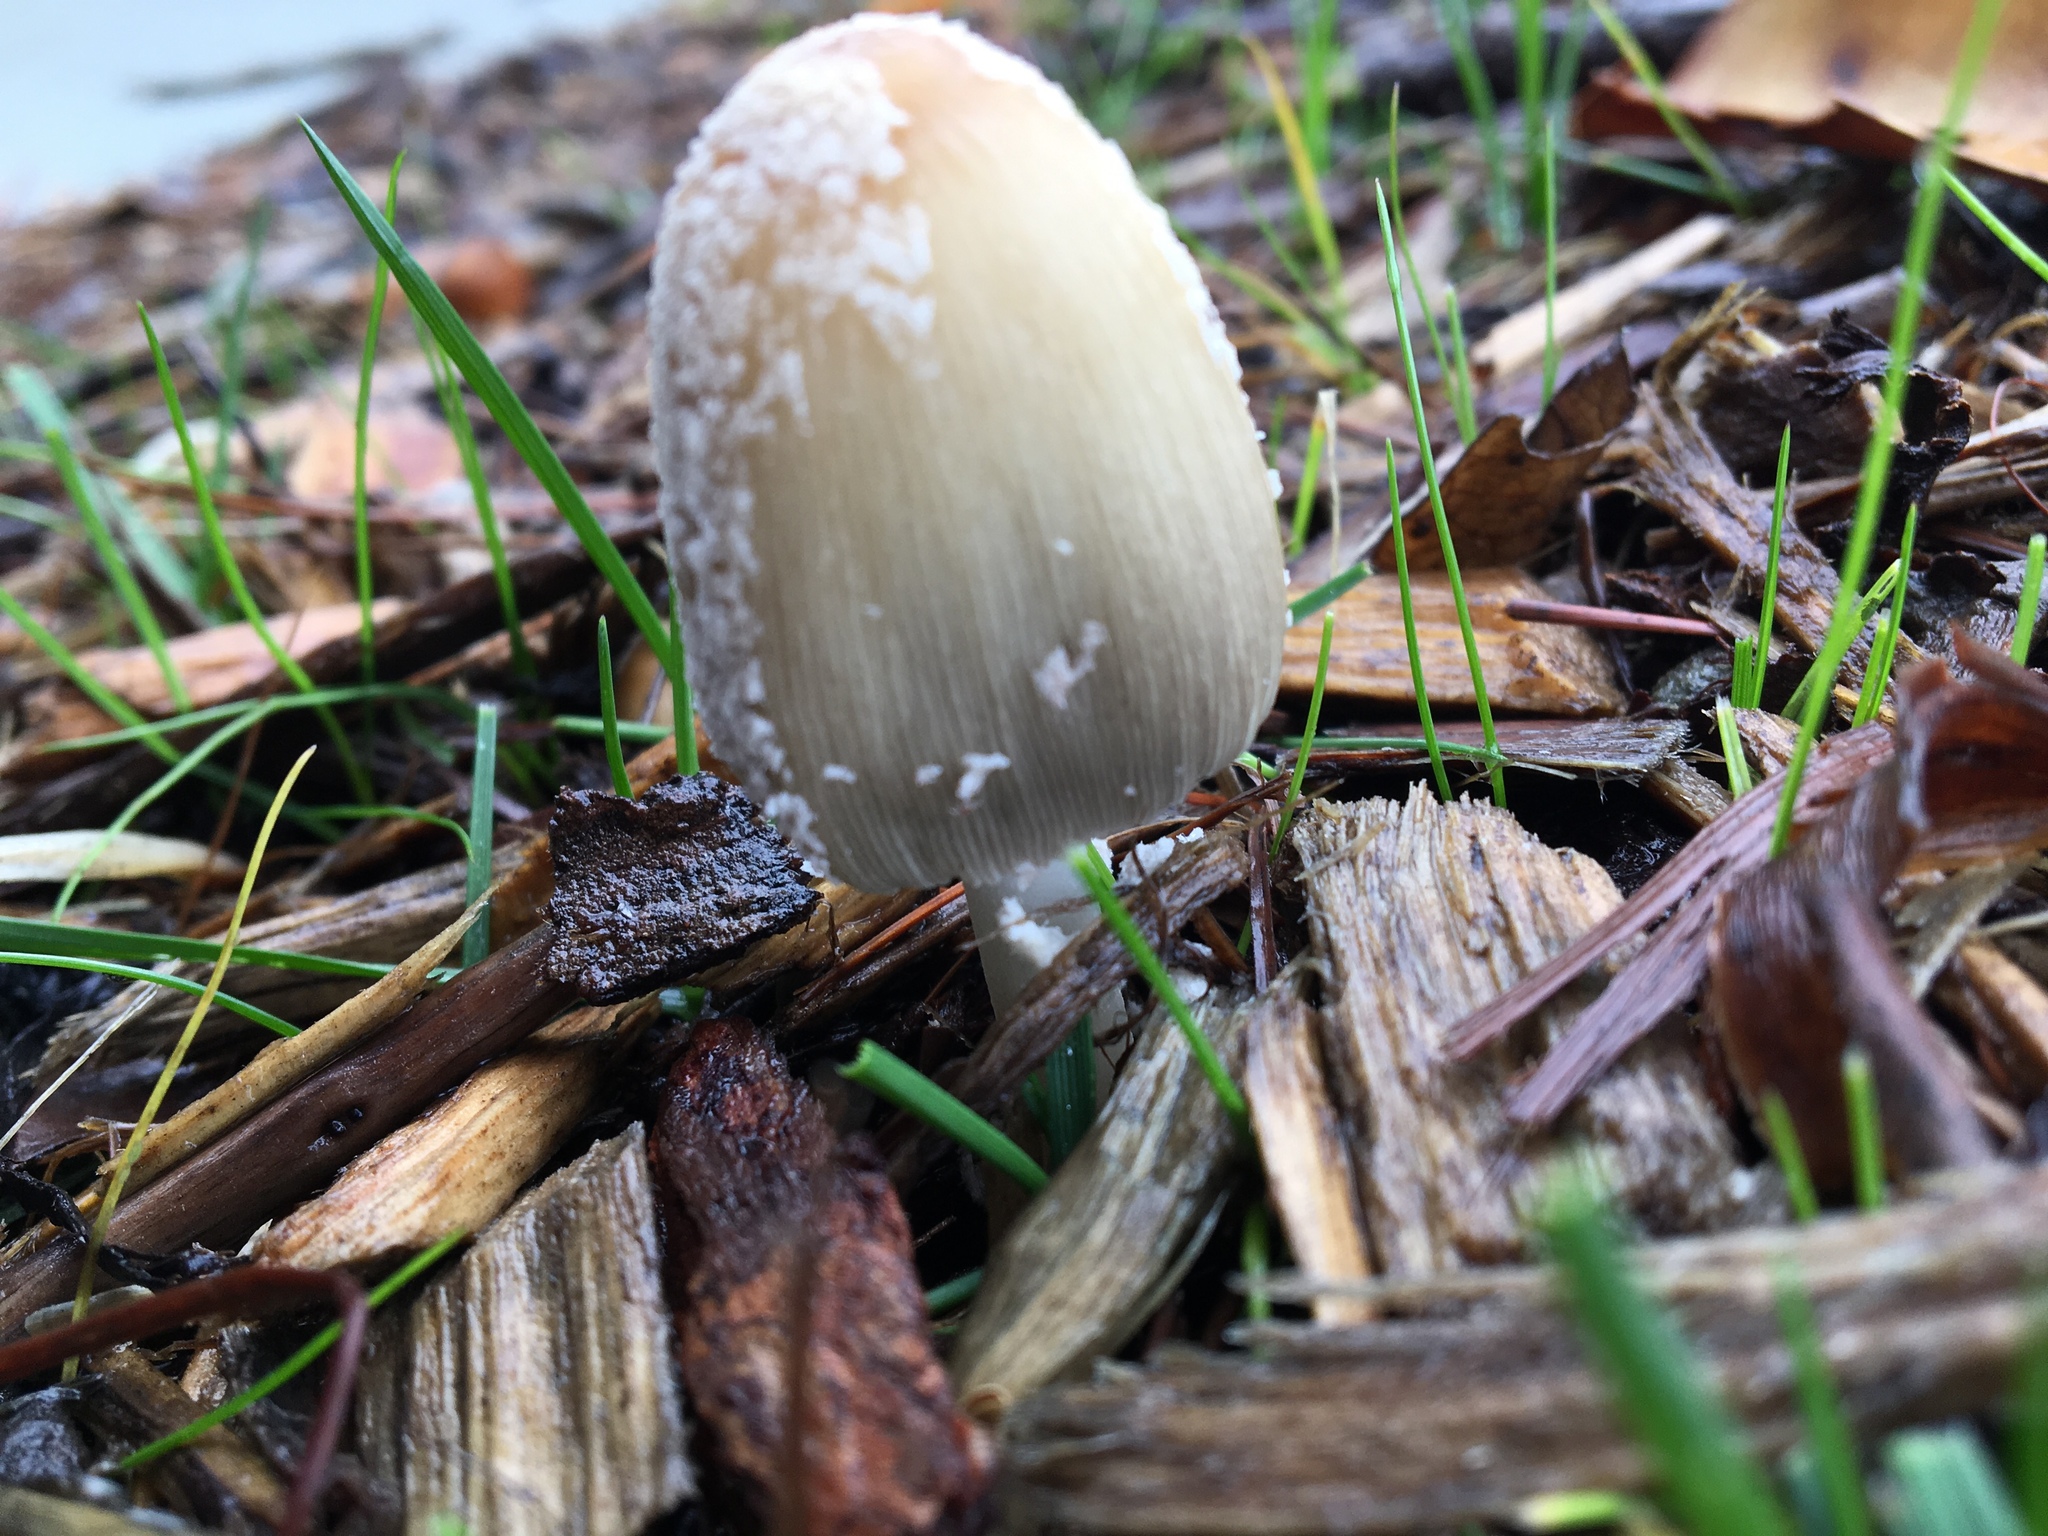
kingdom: Fungi
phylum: Basidiomycota
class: Agaricomycetes
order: Agaricales
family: Psathyrellaceae
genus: Coprinellus
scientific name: Coprinellus flocculosus
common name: Flocculose inkcap
